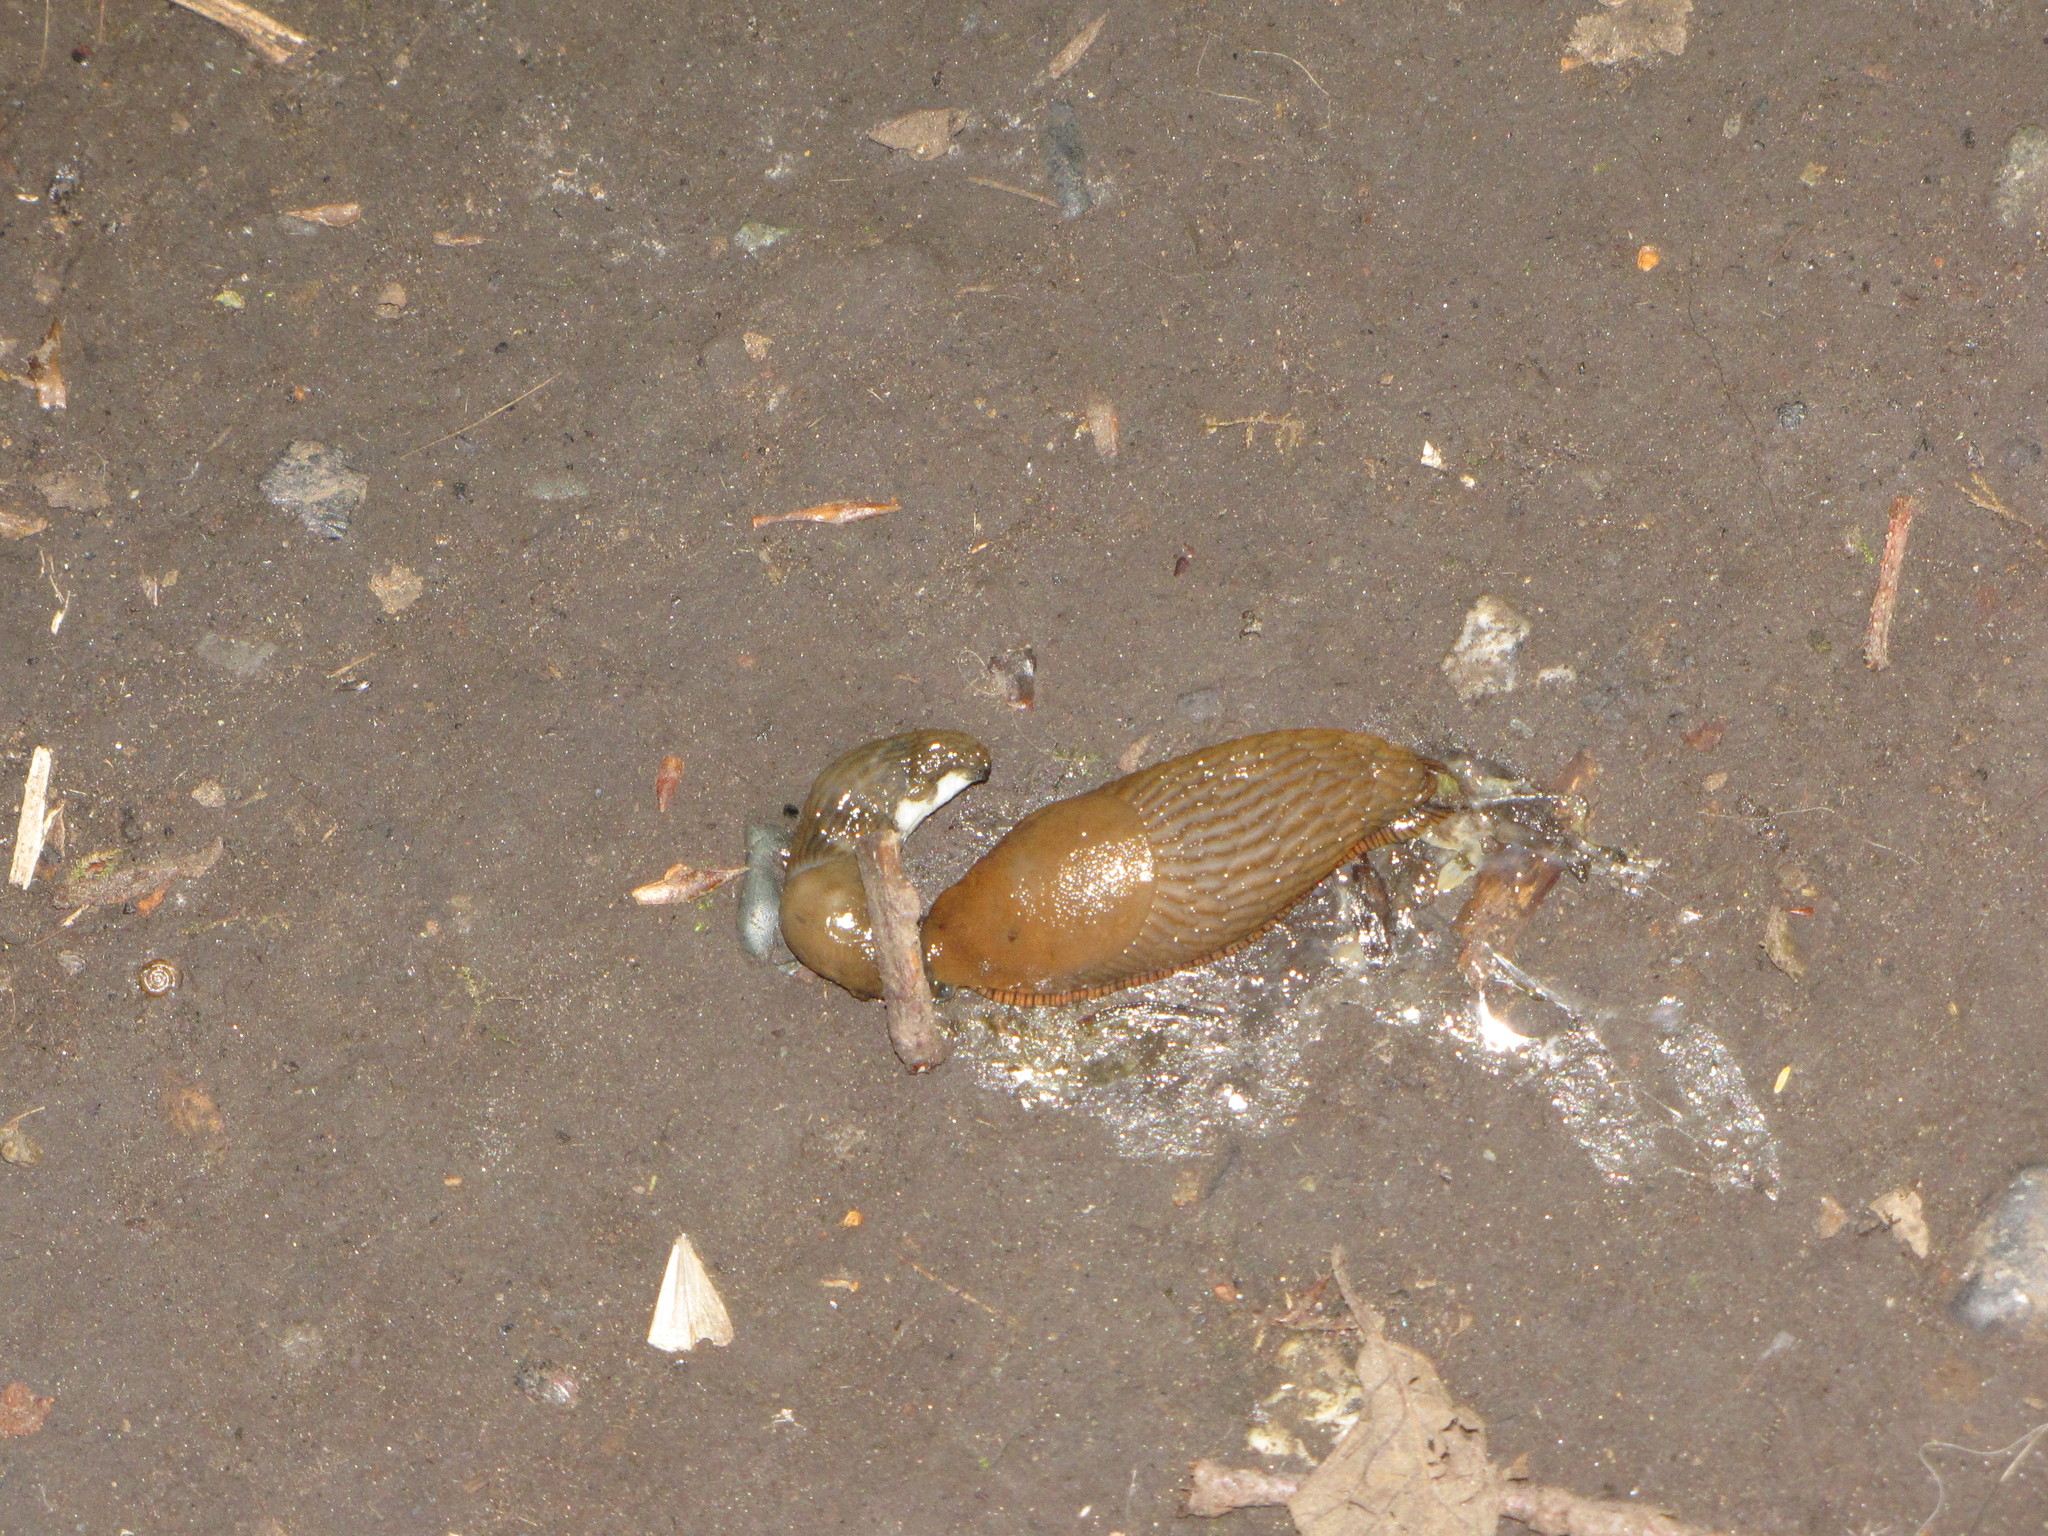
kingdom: Animalia
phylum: Mollusca
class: Gastropoda
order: Stylommatophora
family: Arionidae
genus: Arion
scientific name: Arion rufus
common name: Chocolate arion
